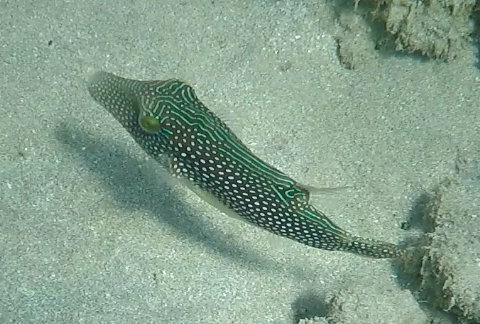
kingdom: Animalia
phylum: Chordata
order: Tetraodontiformes
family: Tetraodontidae
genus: Canthigaster
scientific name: Canthigaster margaritata
